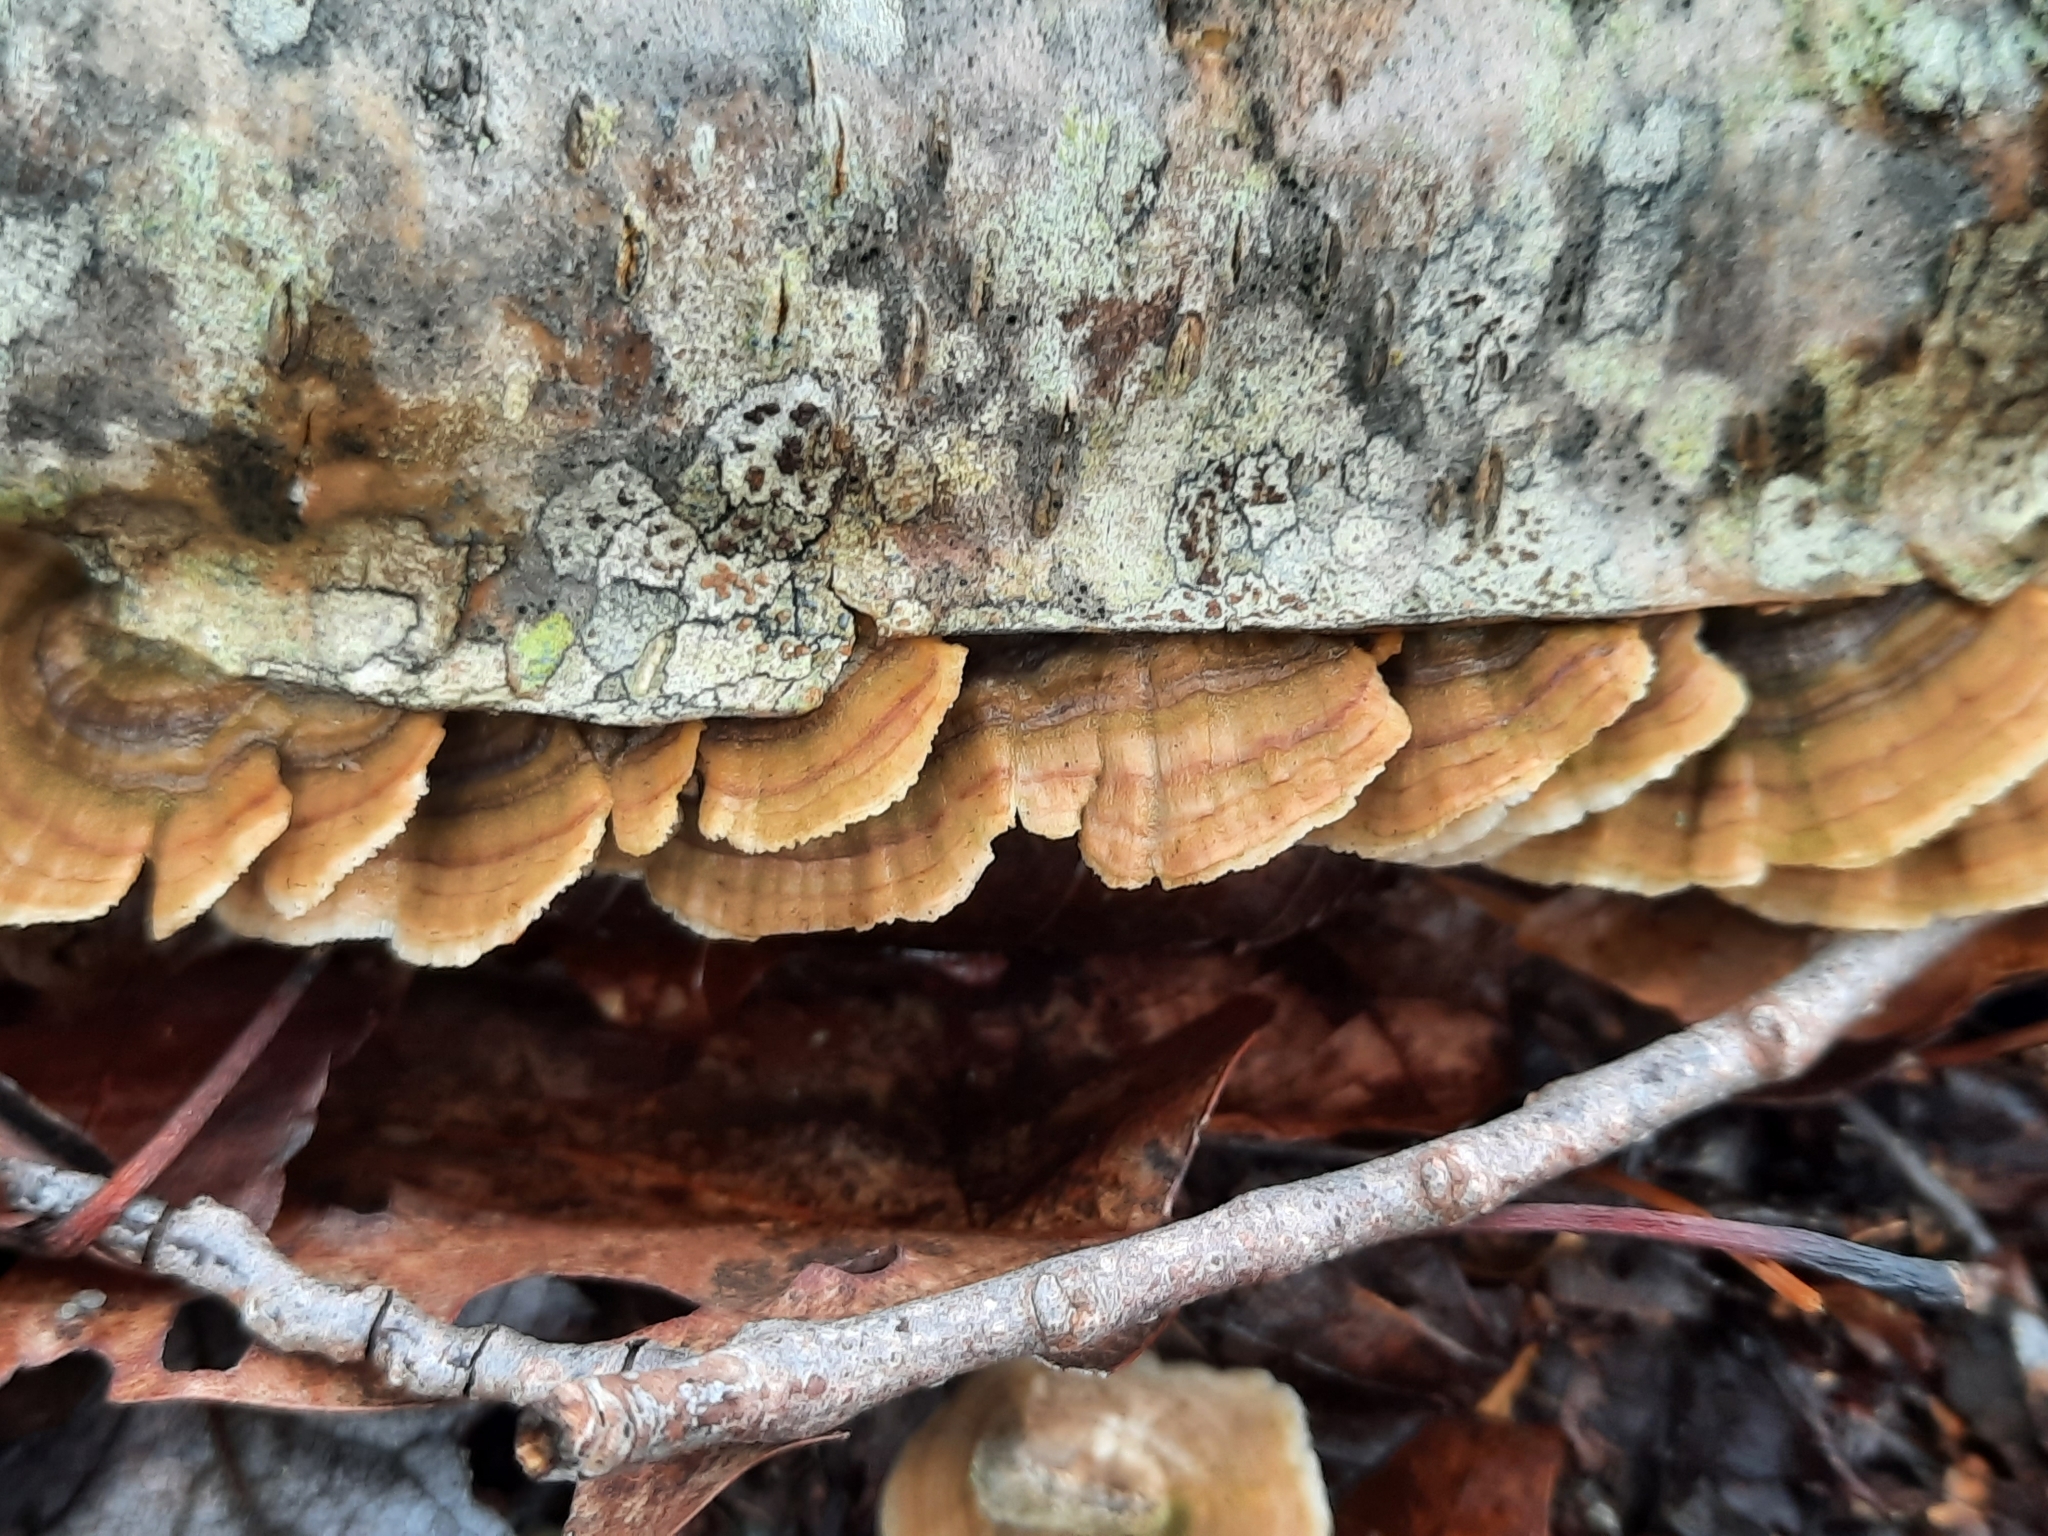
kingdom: Fungi
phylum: Basidiomycota
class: Agaricomycetes
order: Hymenochaetales
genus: Trichaptum
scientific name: Trichaptum biforme
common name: Violet-toothed polypore
